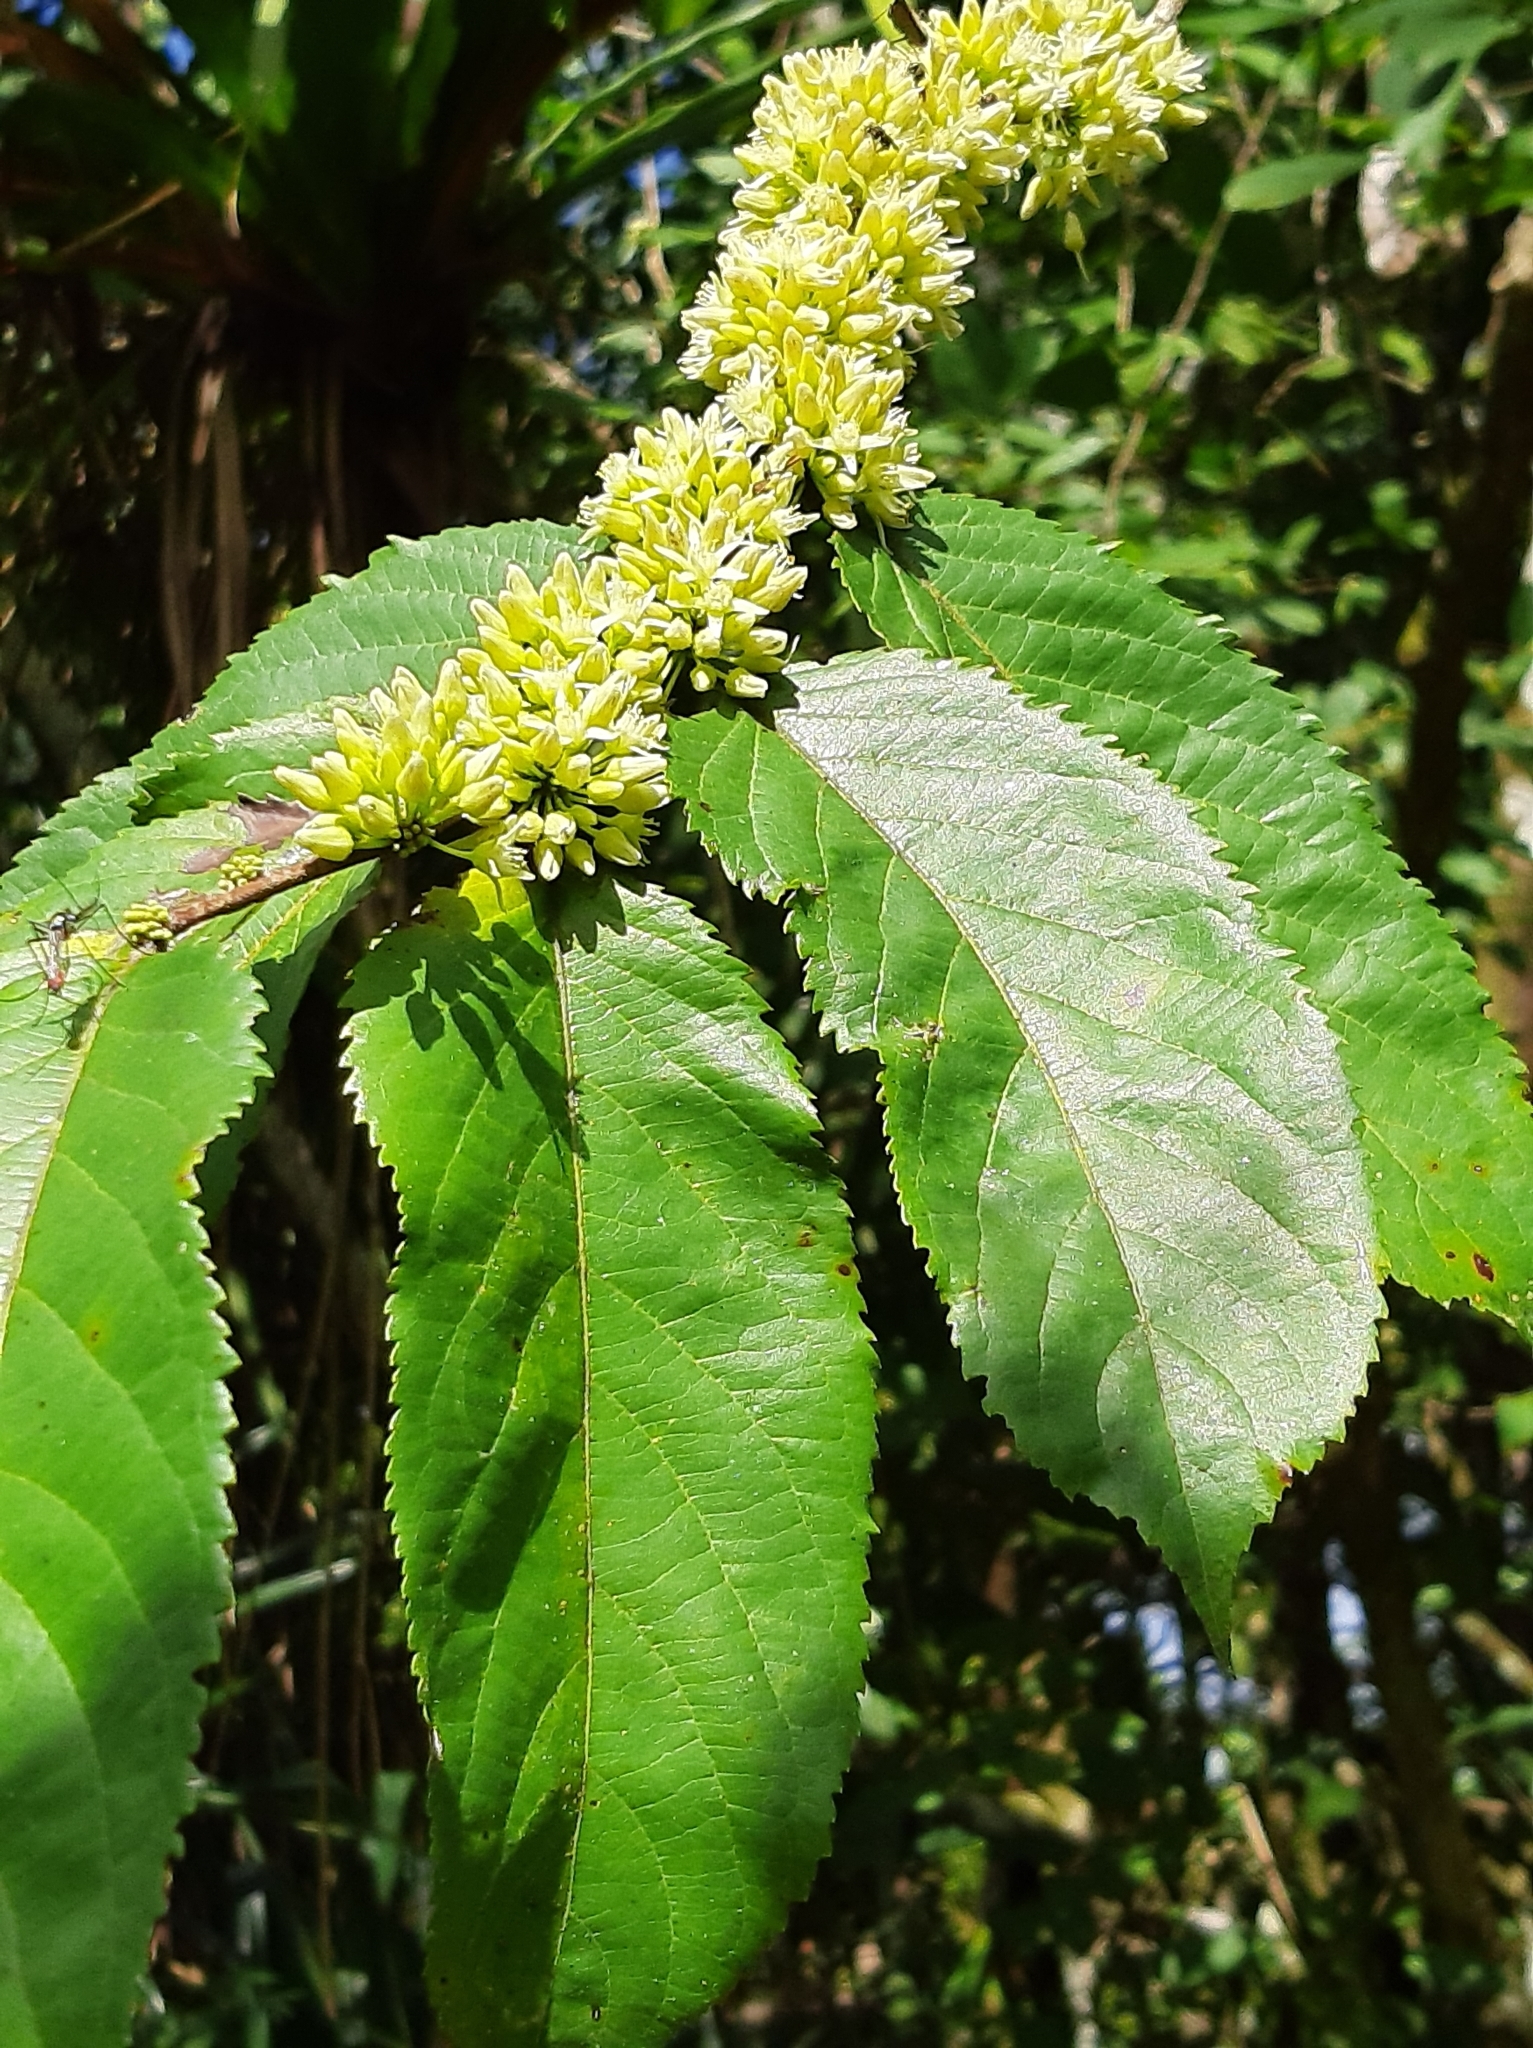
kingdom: Plantae
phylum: Tracheophyta
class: Magnoliopsida
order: Malvales
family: Malvaceae
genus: Guazuma
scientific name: Guazuma ulmifolia
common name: Bastard-cedar
